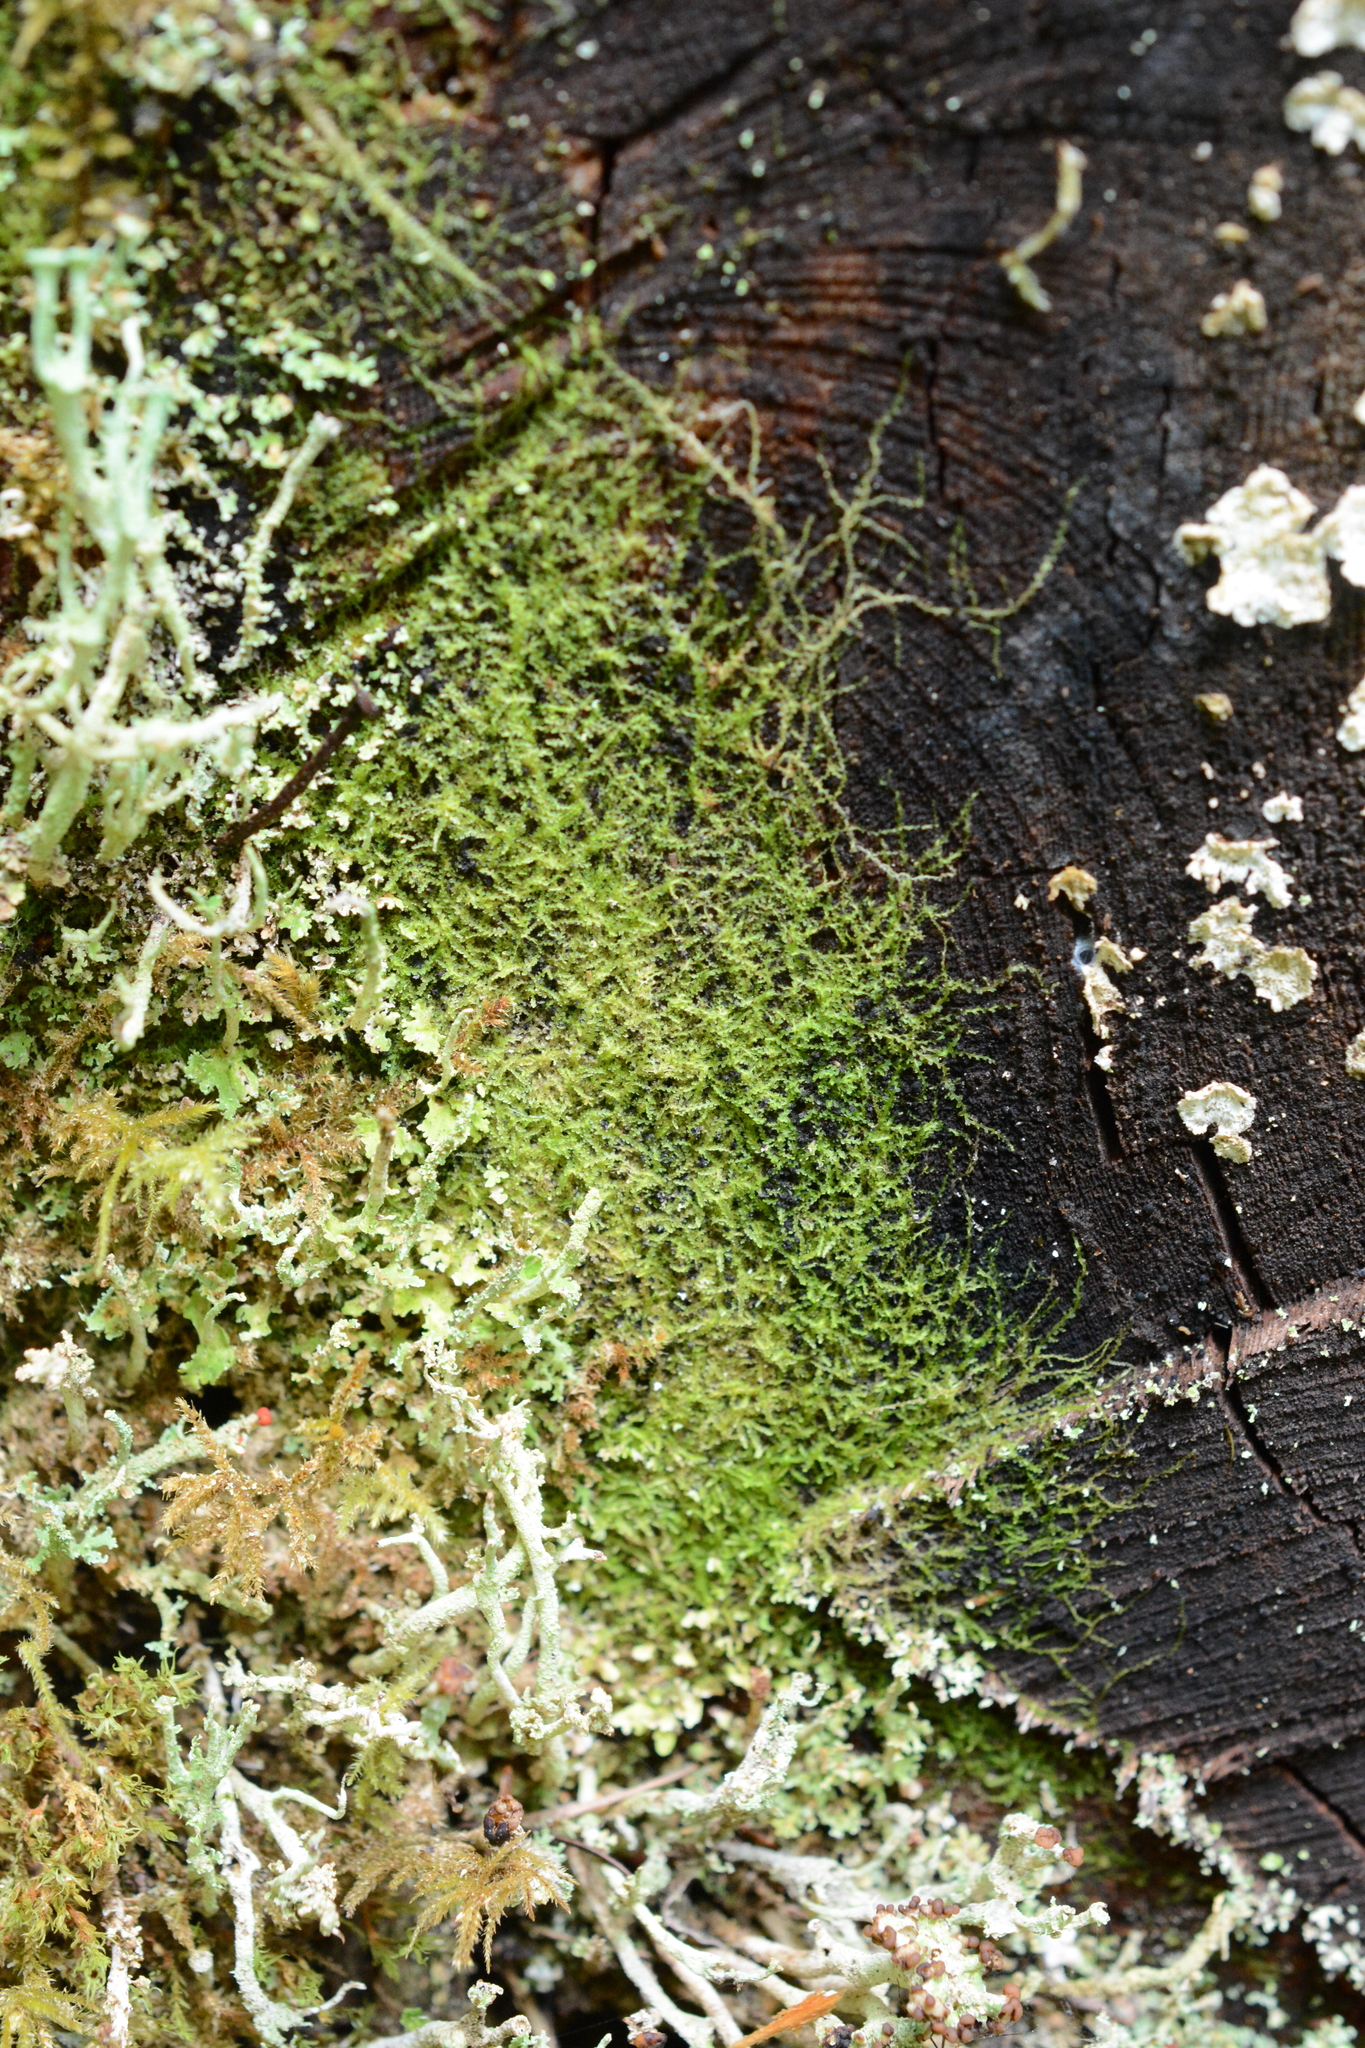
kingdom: Plantae
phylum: Marchantiophyta
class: Jungermanniopsida
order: Jungermanniales
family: Lepidoziaceae
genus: Lepidozia
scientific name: Lepidozia reptans
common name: Creeping fingerwort
